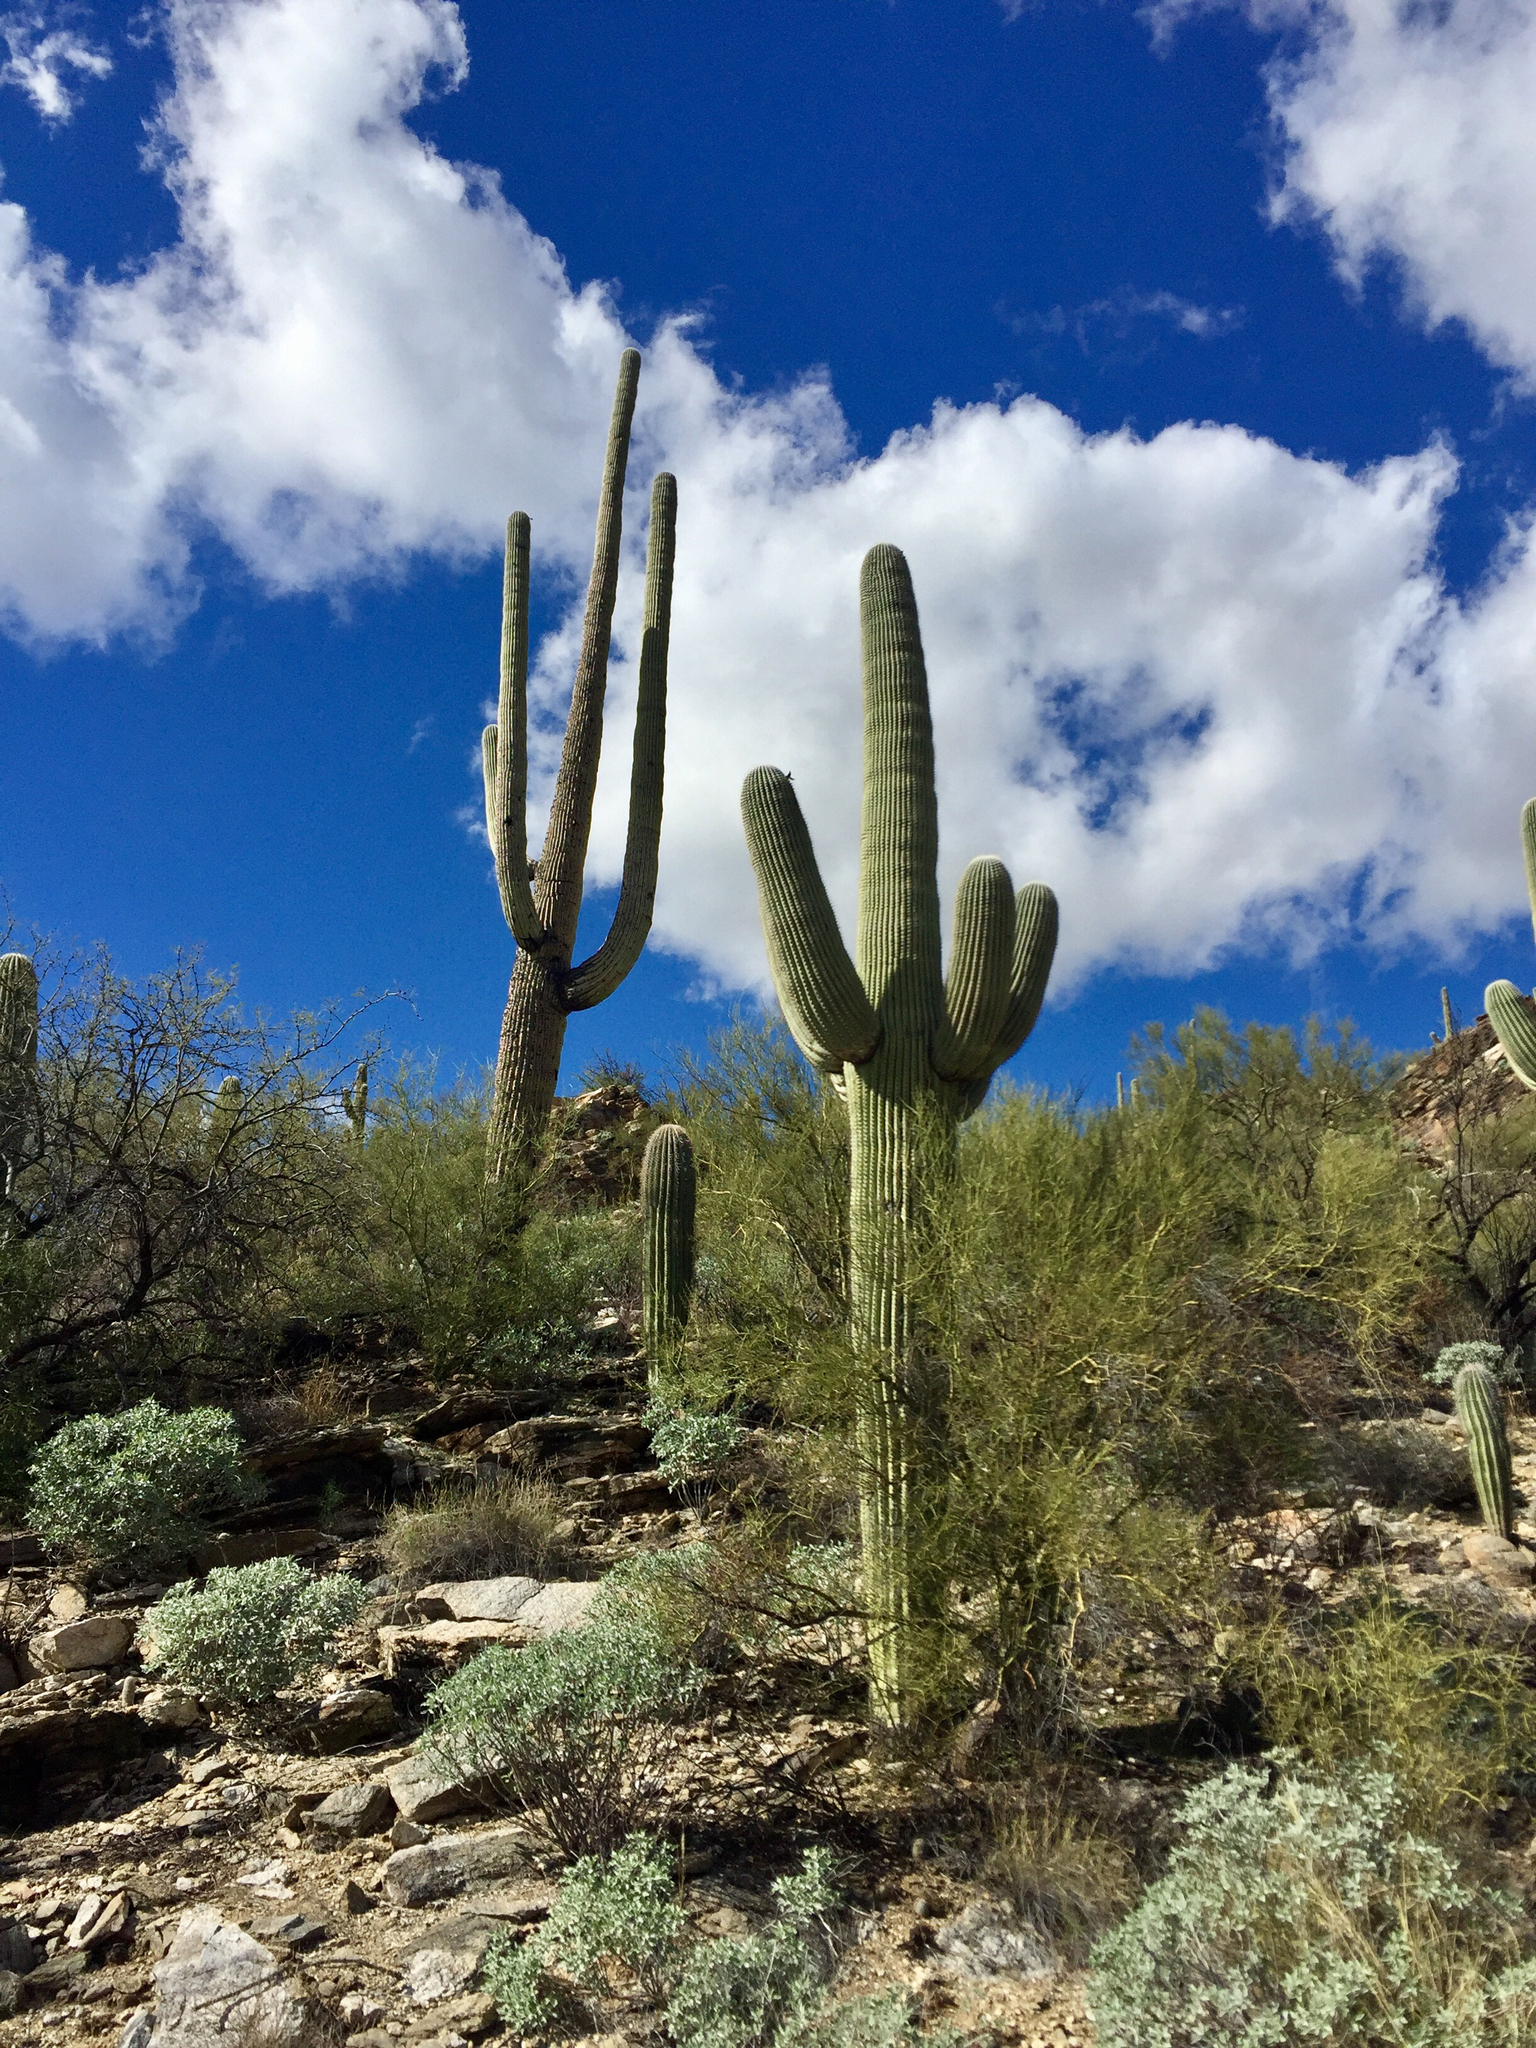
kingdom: Plantae
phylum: Tracheophyta
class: Magnoliopsida
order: Caryophyllales
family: Cactaceae
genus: Carnegiea
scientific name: Carnegiea gigantea
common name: Saguaro
